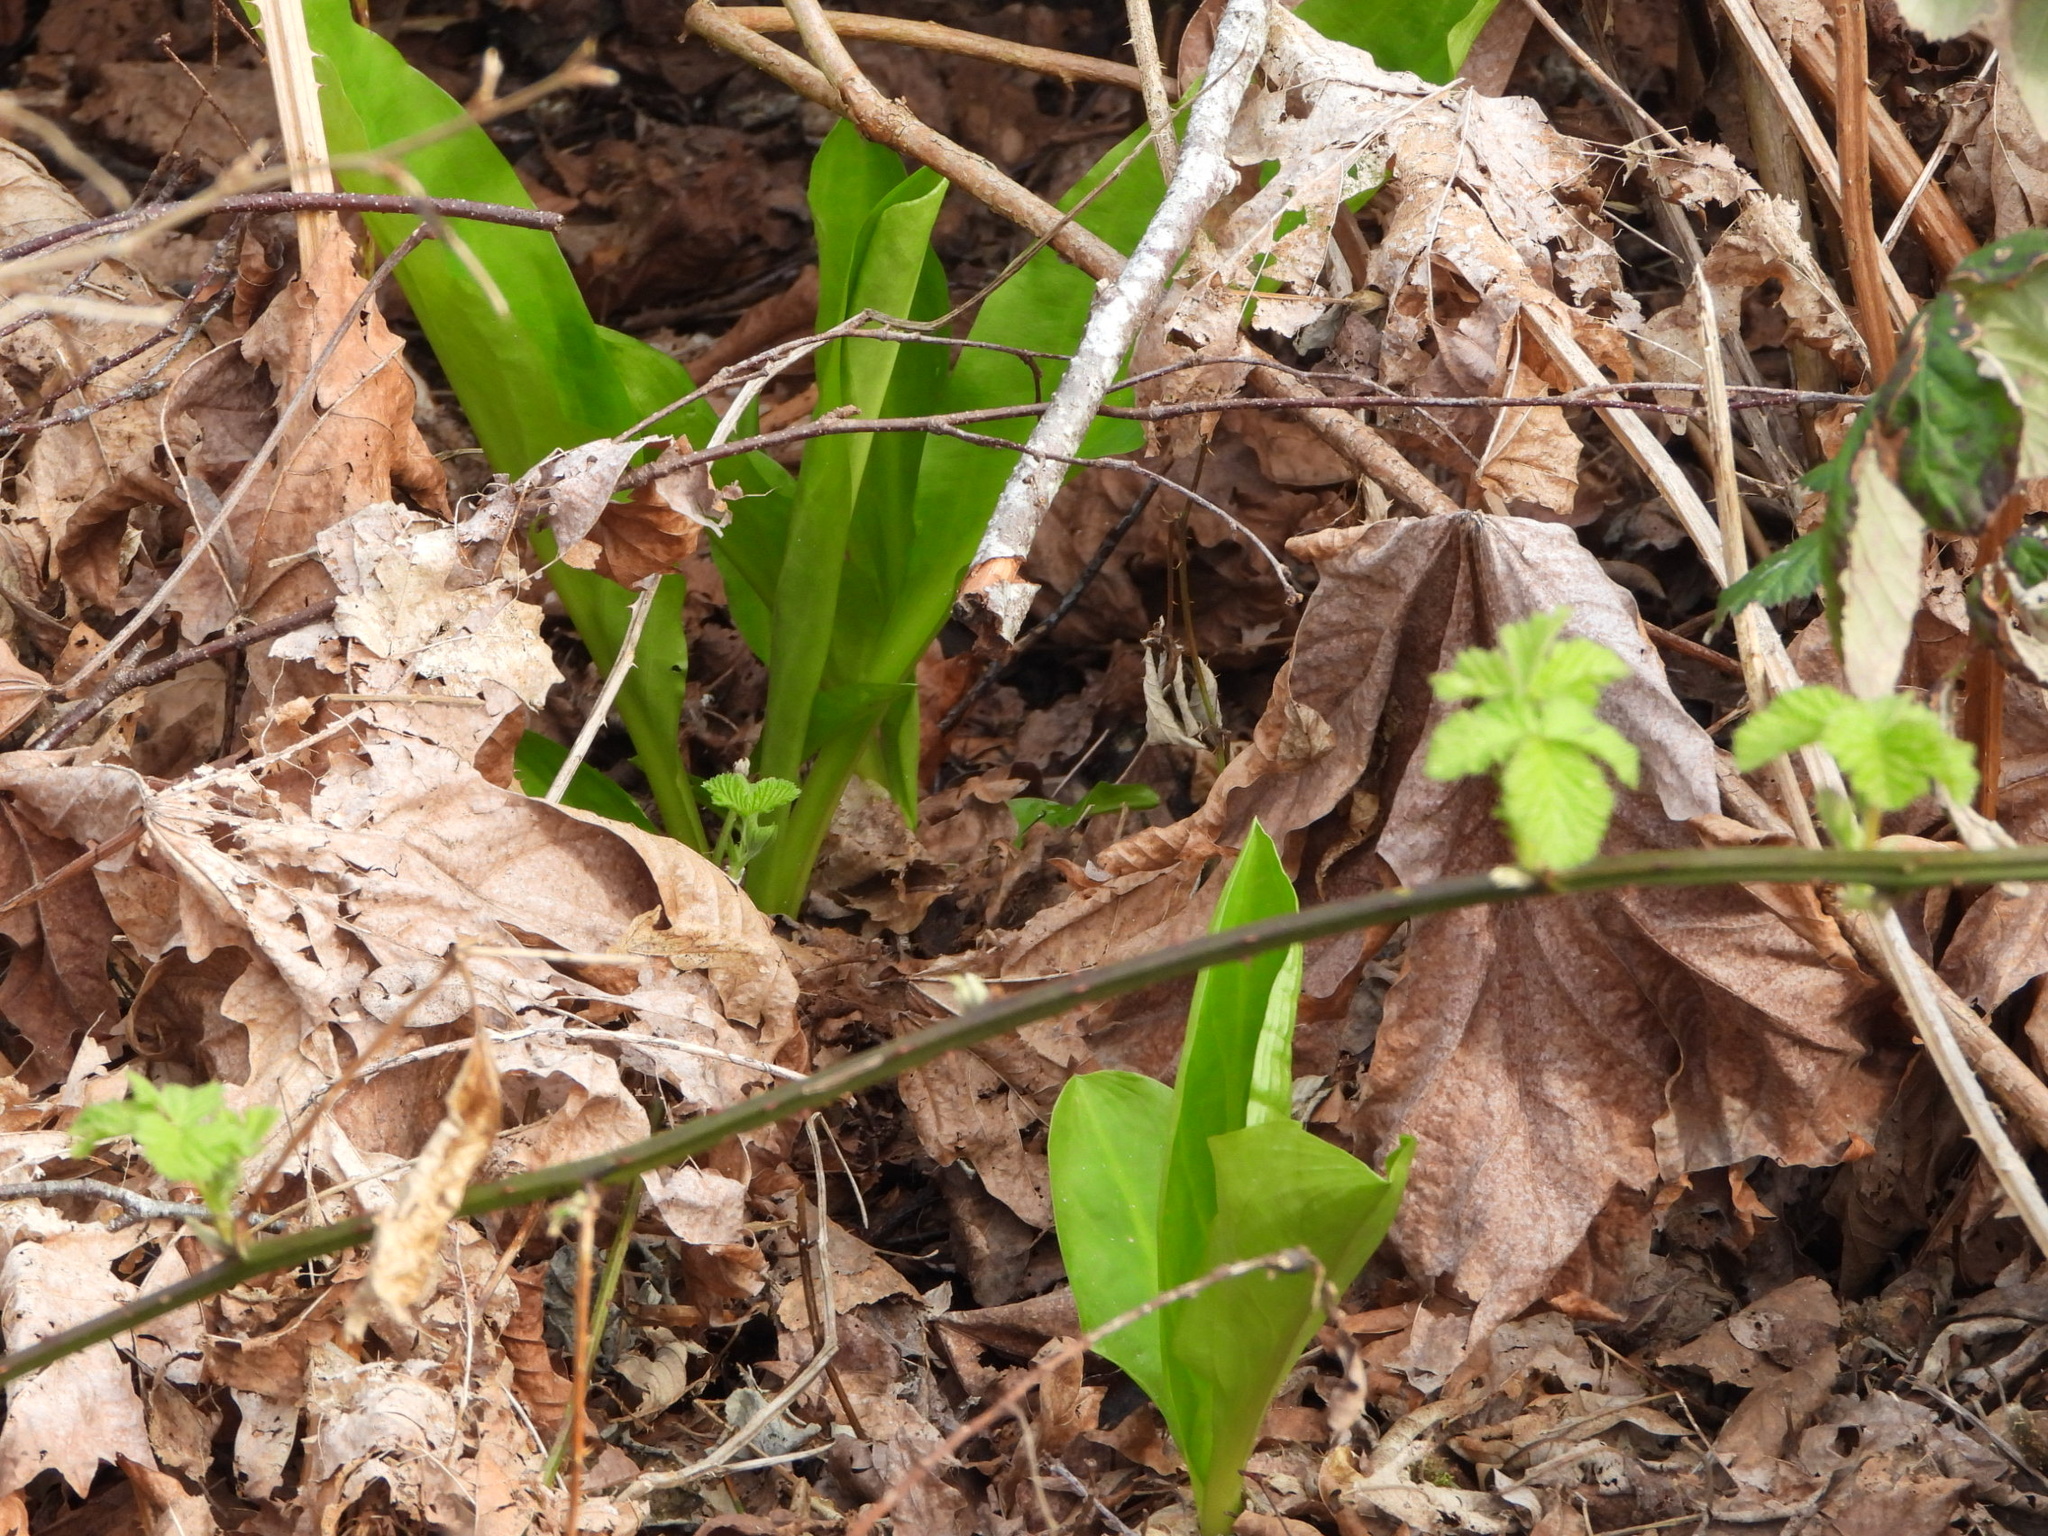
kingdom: Plantae
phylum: Tracheophyta
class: Liliopsida
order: Alismatales
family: Araceae
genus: Lysichiton
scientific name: Lysichiton americanus
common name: American skunk cabbage
